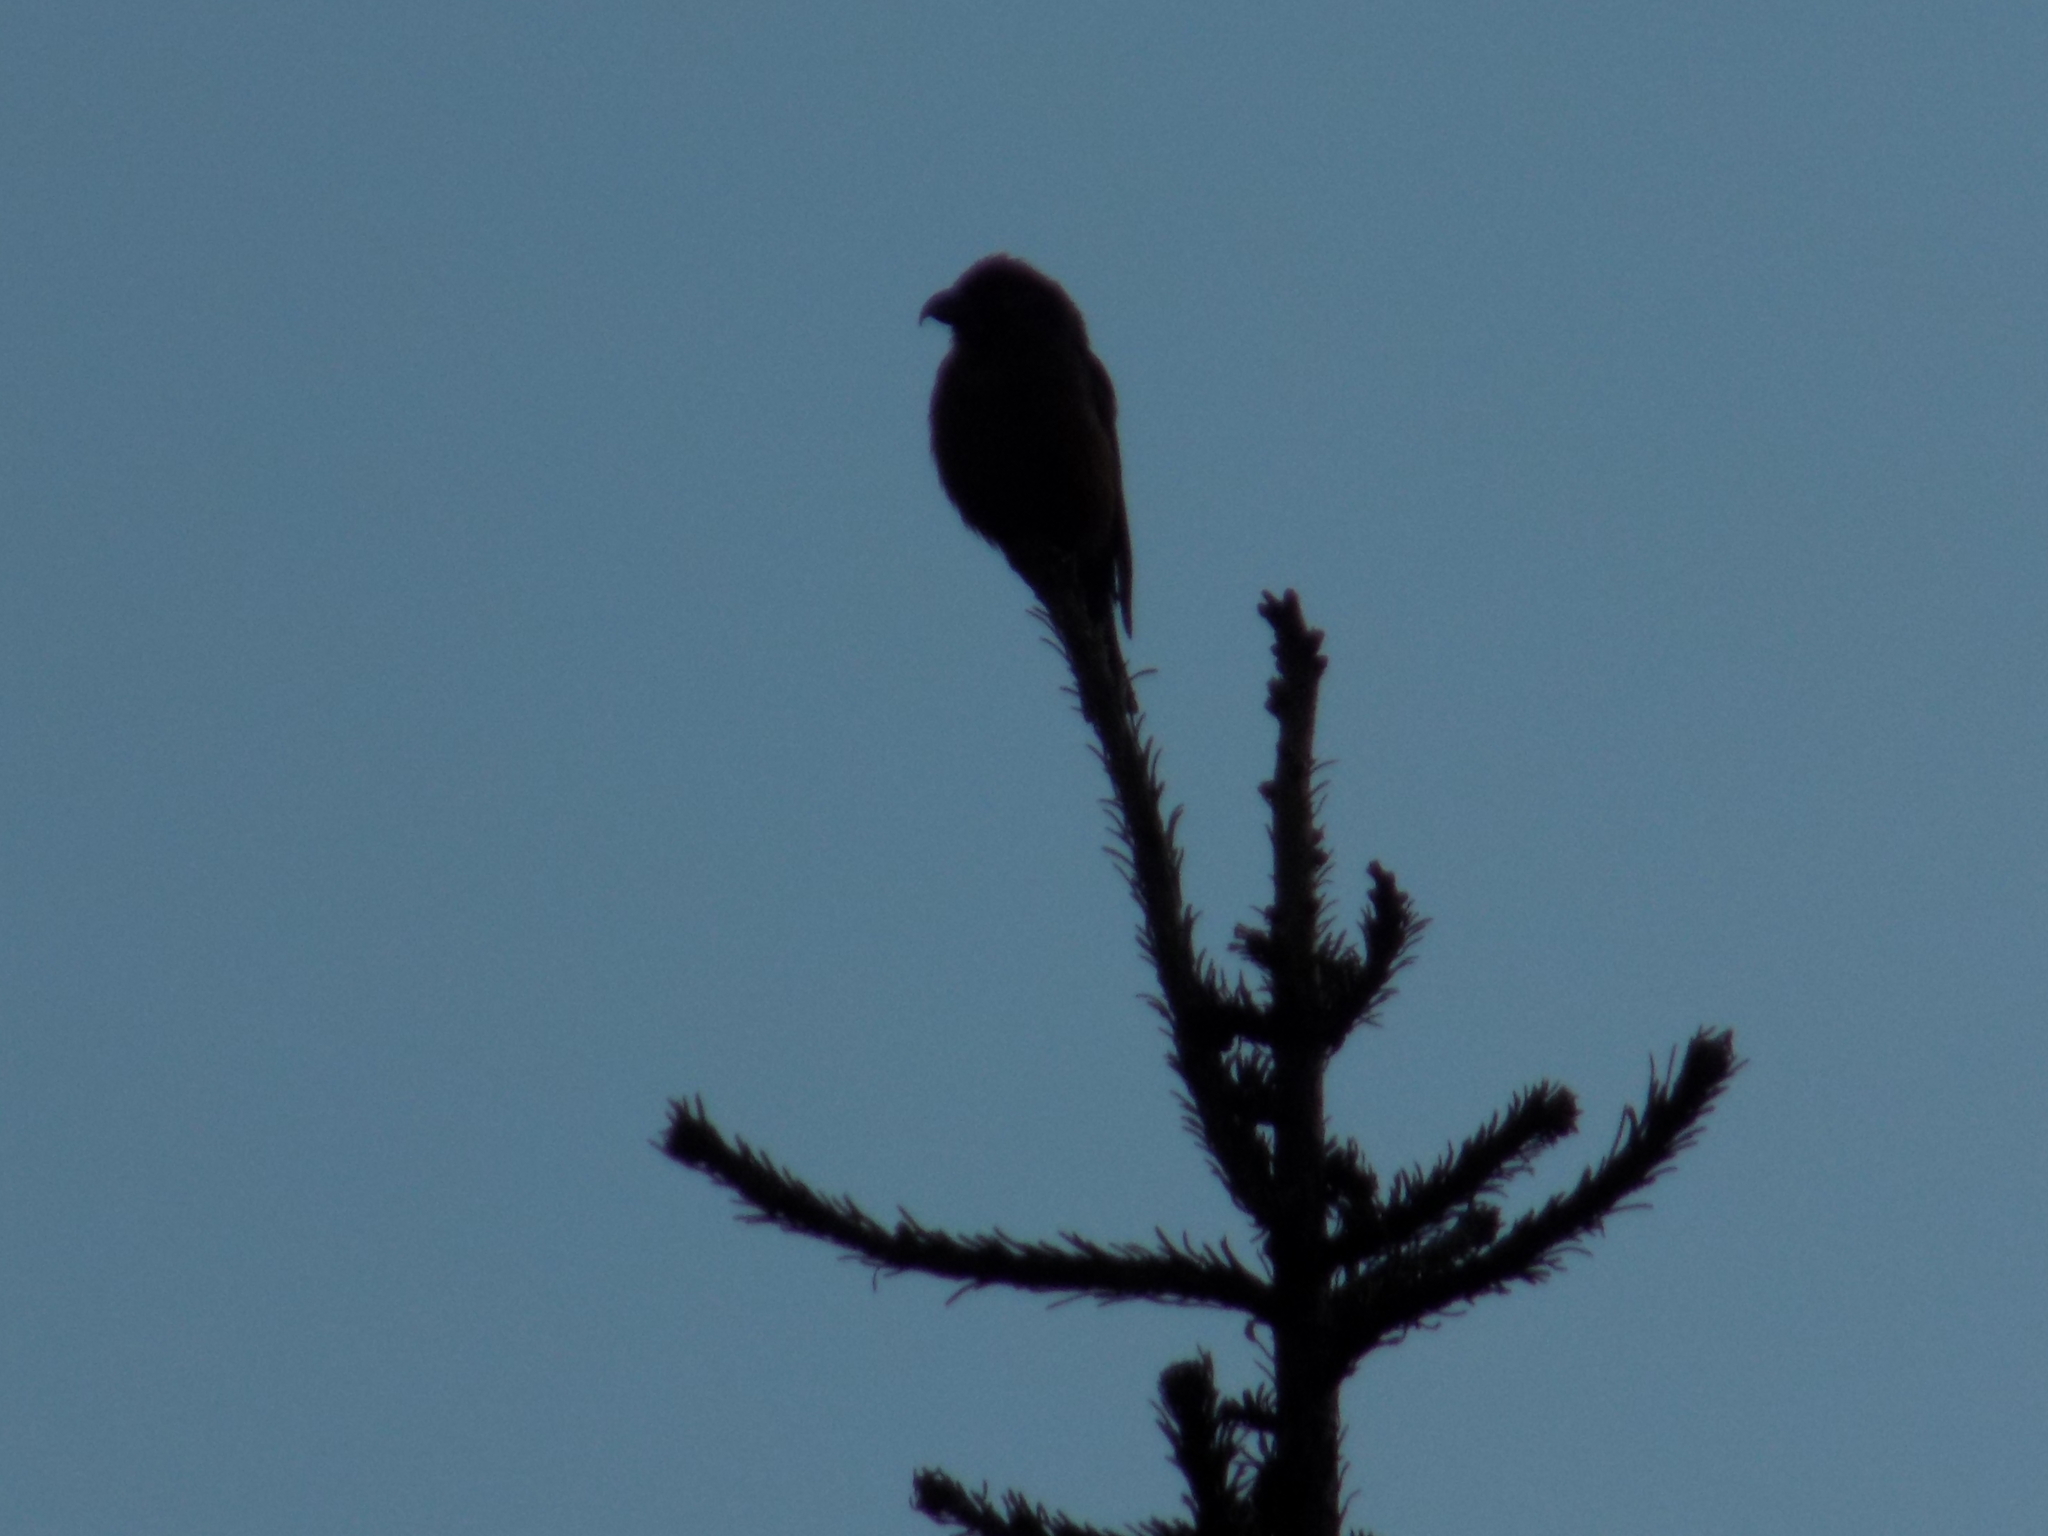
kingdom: Animalia
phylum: Chordata
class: Aves
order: Passeriformes
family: Fringillidae
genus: Loxia
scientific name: Loxia curvirostra
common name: Red crossbill
